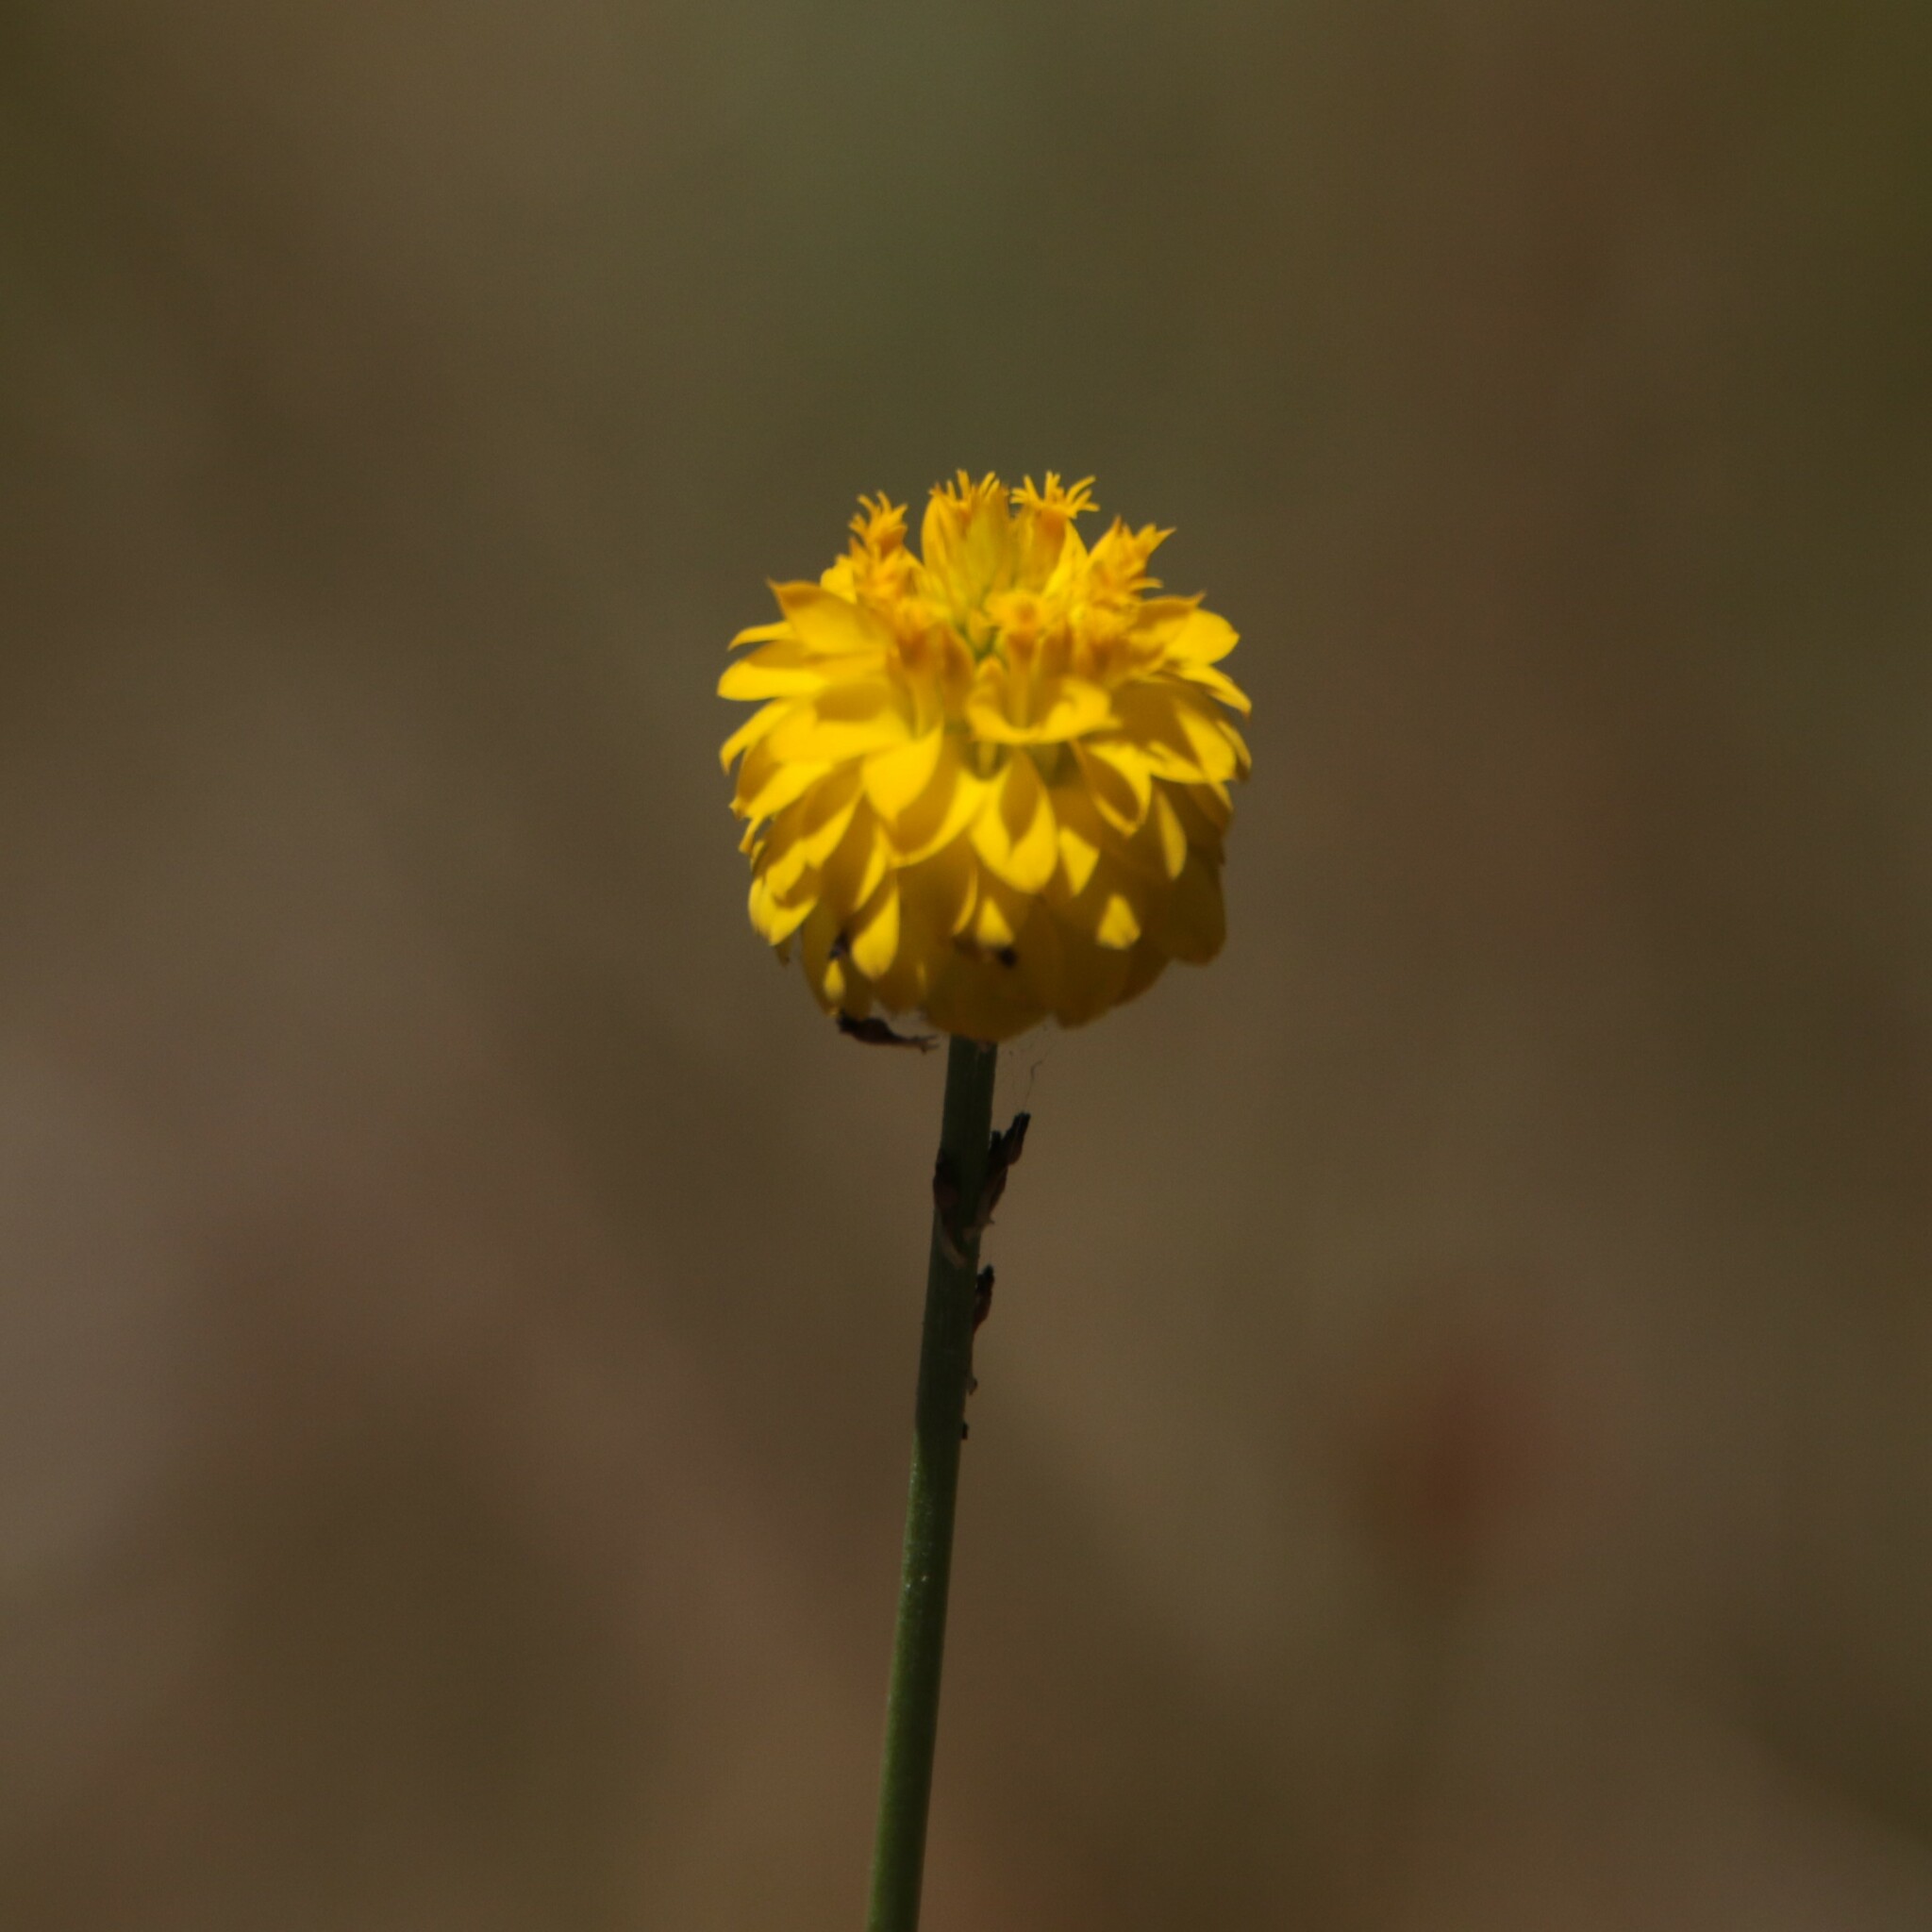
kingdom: Plantae
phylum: Tracheophyta
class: Magnoliopsida
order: Fabales
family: Polygalaceae
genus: Polygala
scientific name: Polygala rugelii
